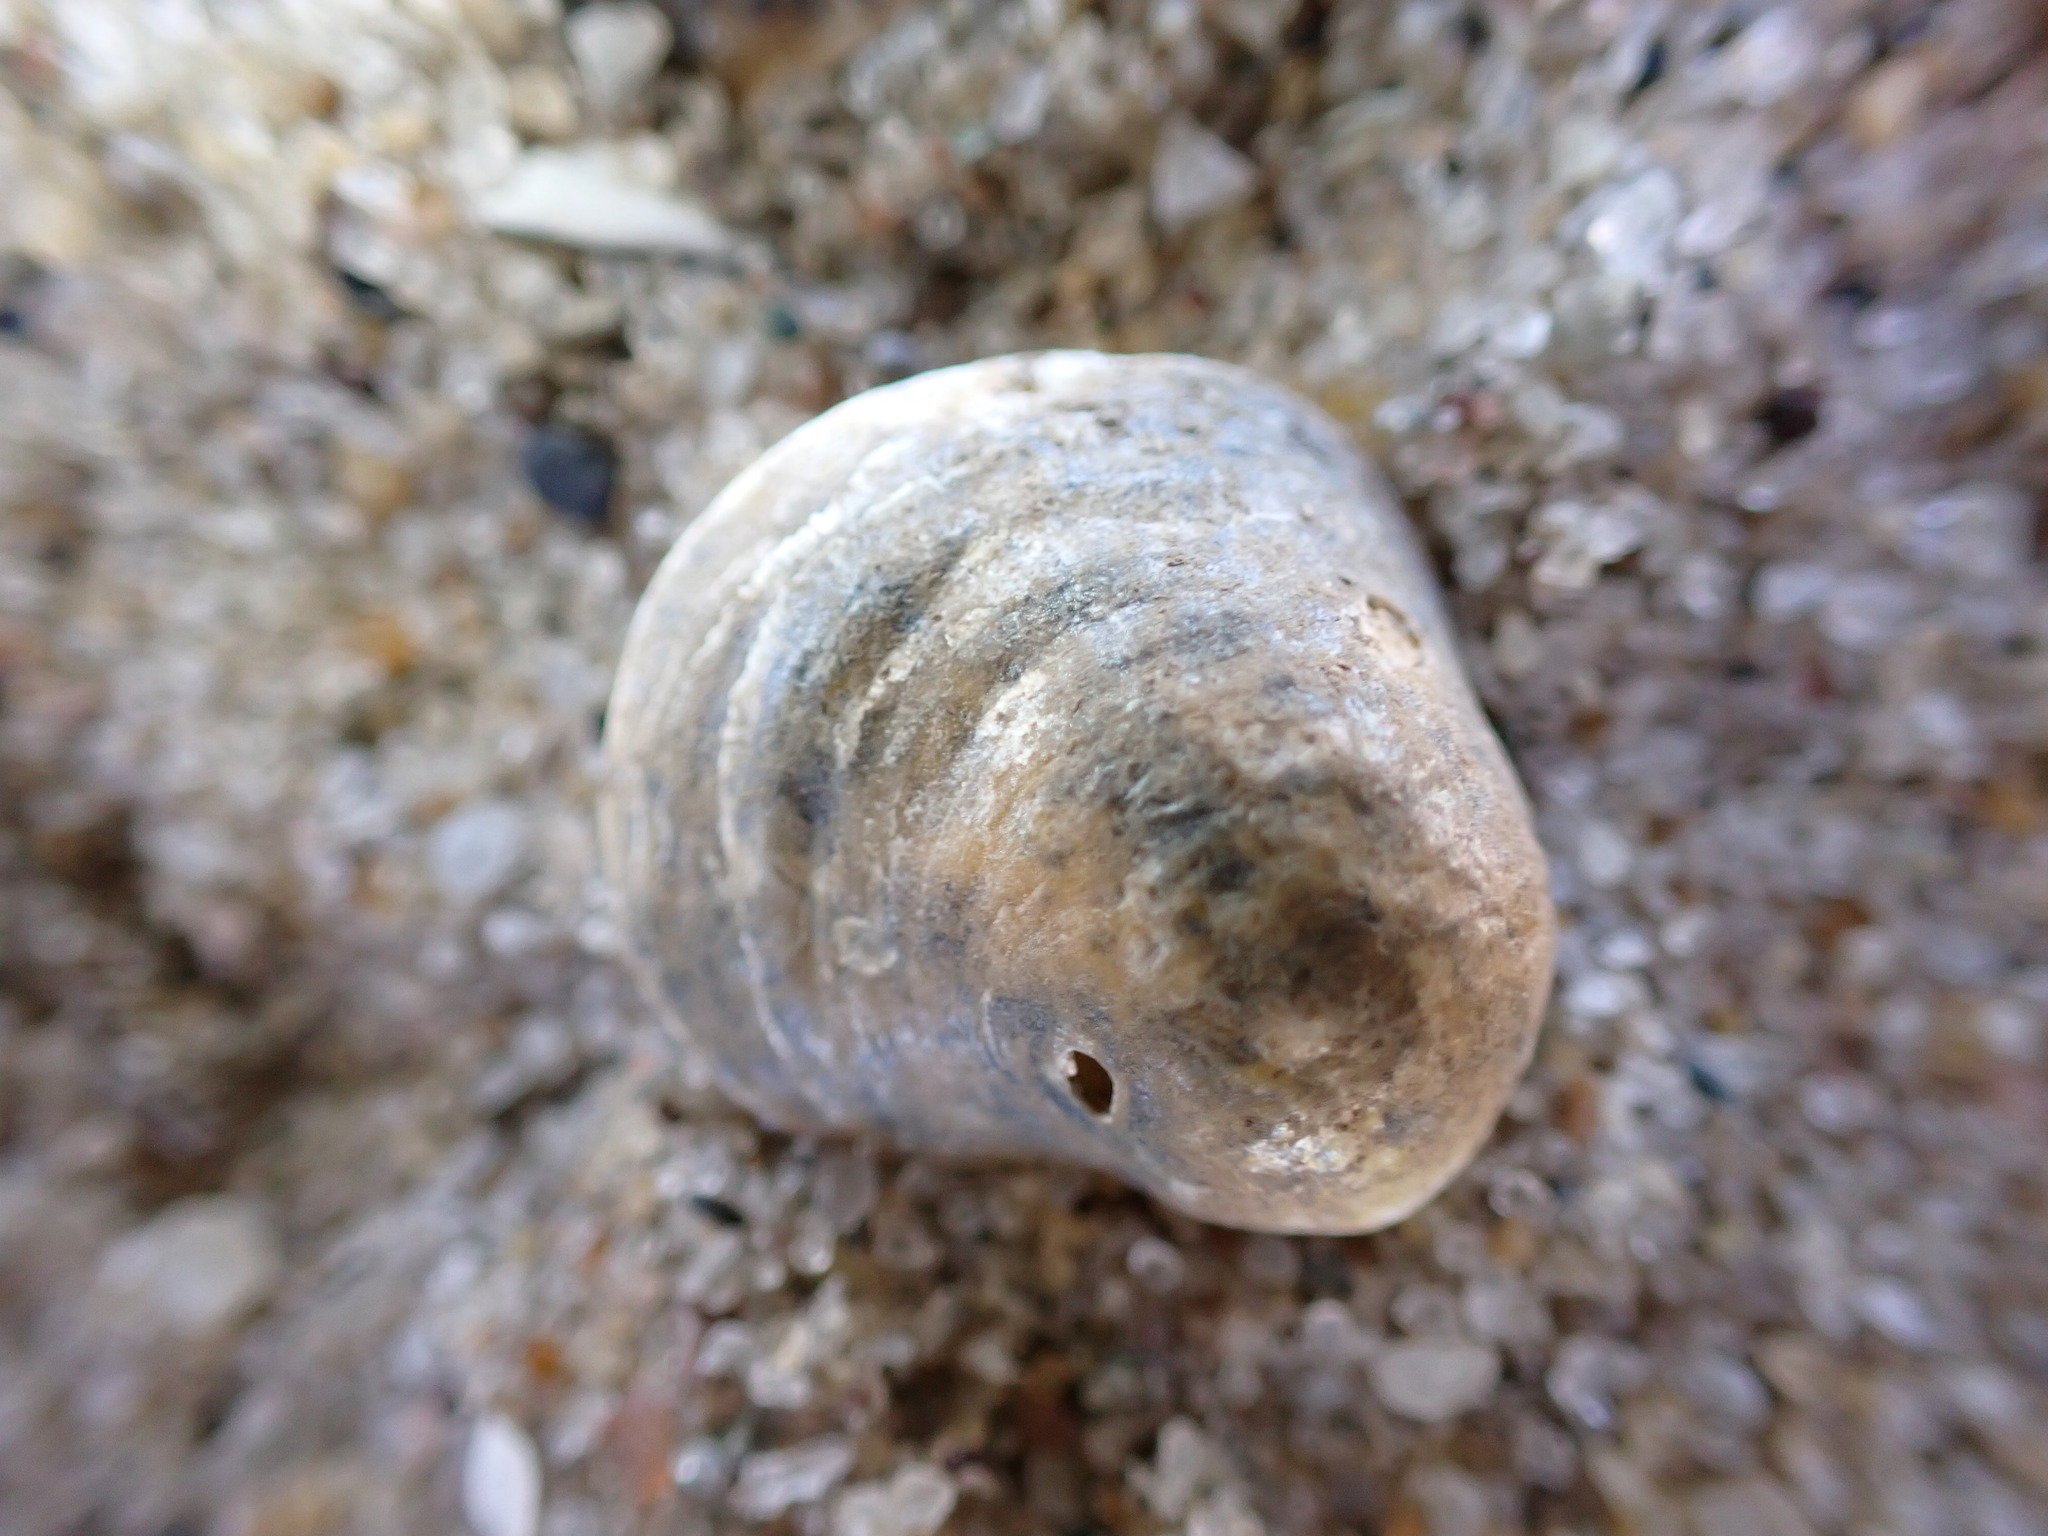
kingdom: Animalia
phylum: Mollusca
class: Bivalvia
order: Pectinida
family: Anomiidae
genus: Anomia
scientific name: Anomia simplex
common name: Common jingle shell
